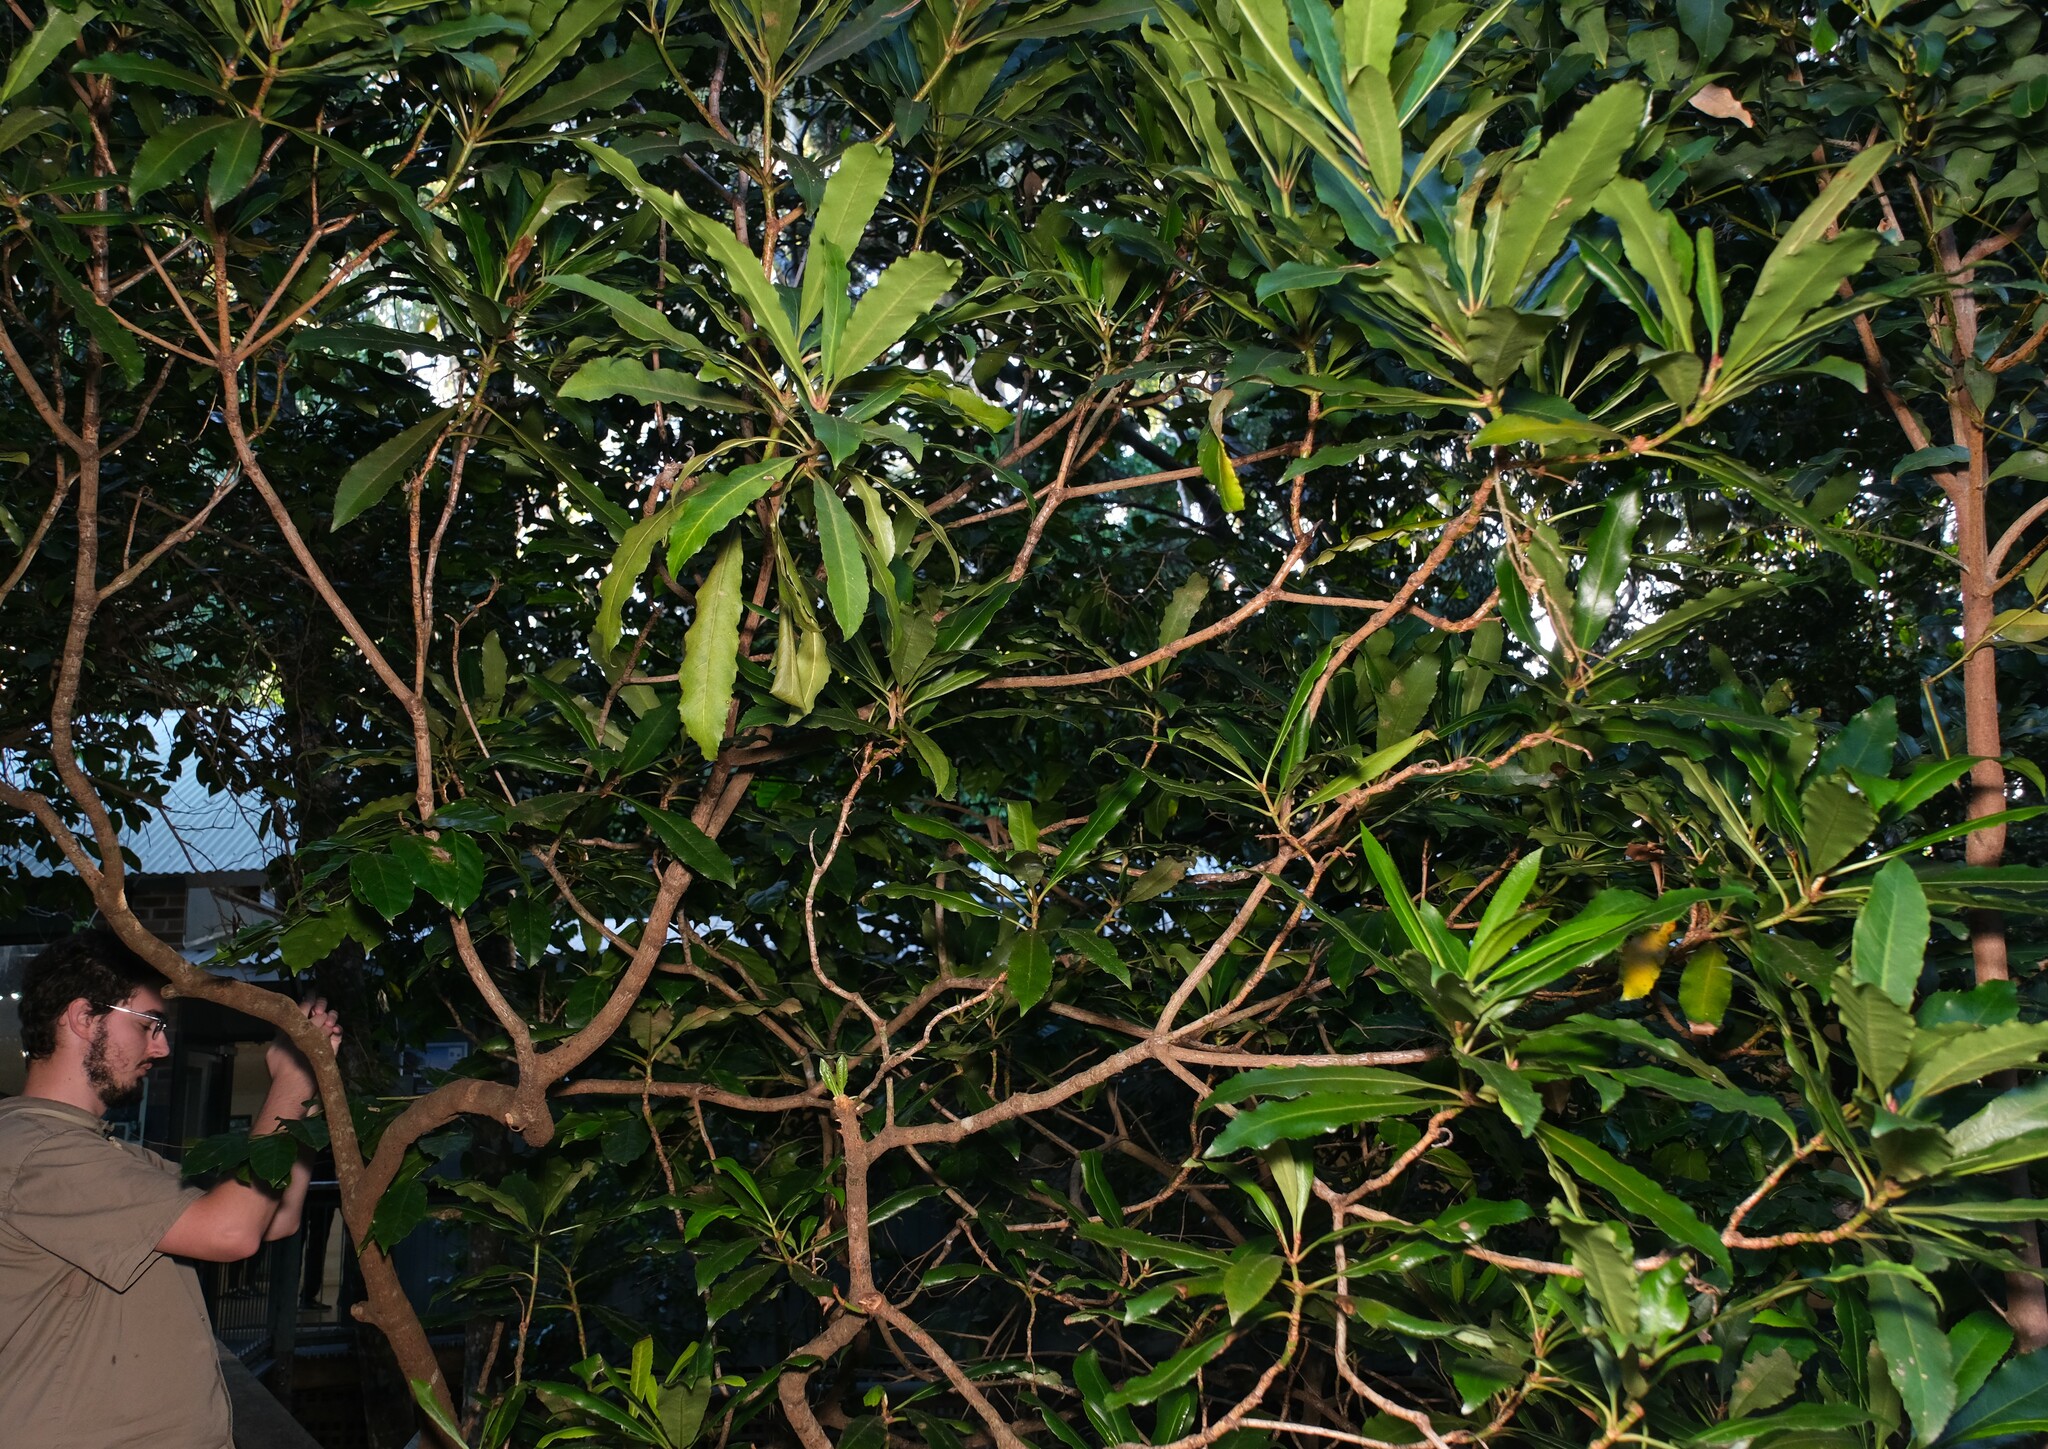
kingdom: Plantae
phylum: Tracheophyta
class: Magnoliopsida
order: Escalloniales
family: Escalloniaceae
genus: Anopterus
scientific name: Anopterus macleayanus
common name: Tasmanian-laurel
